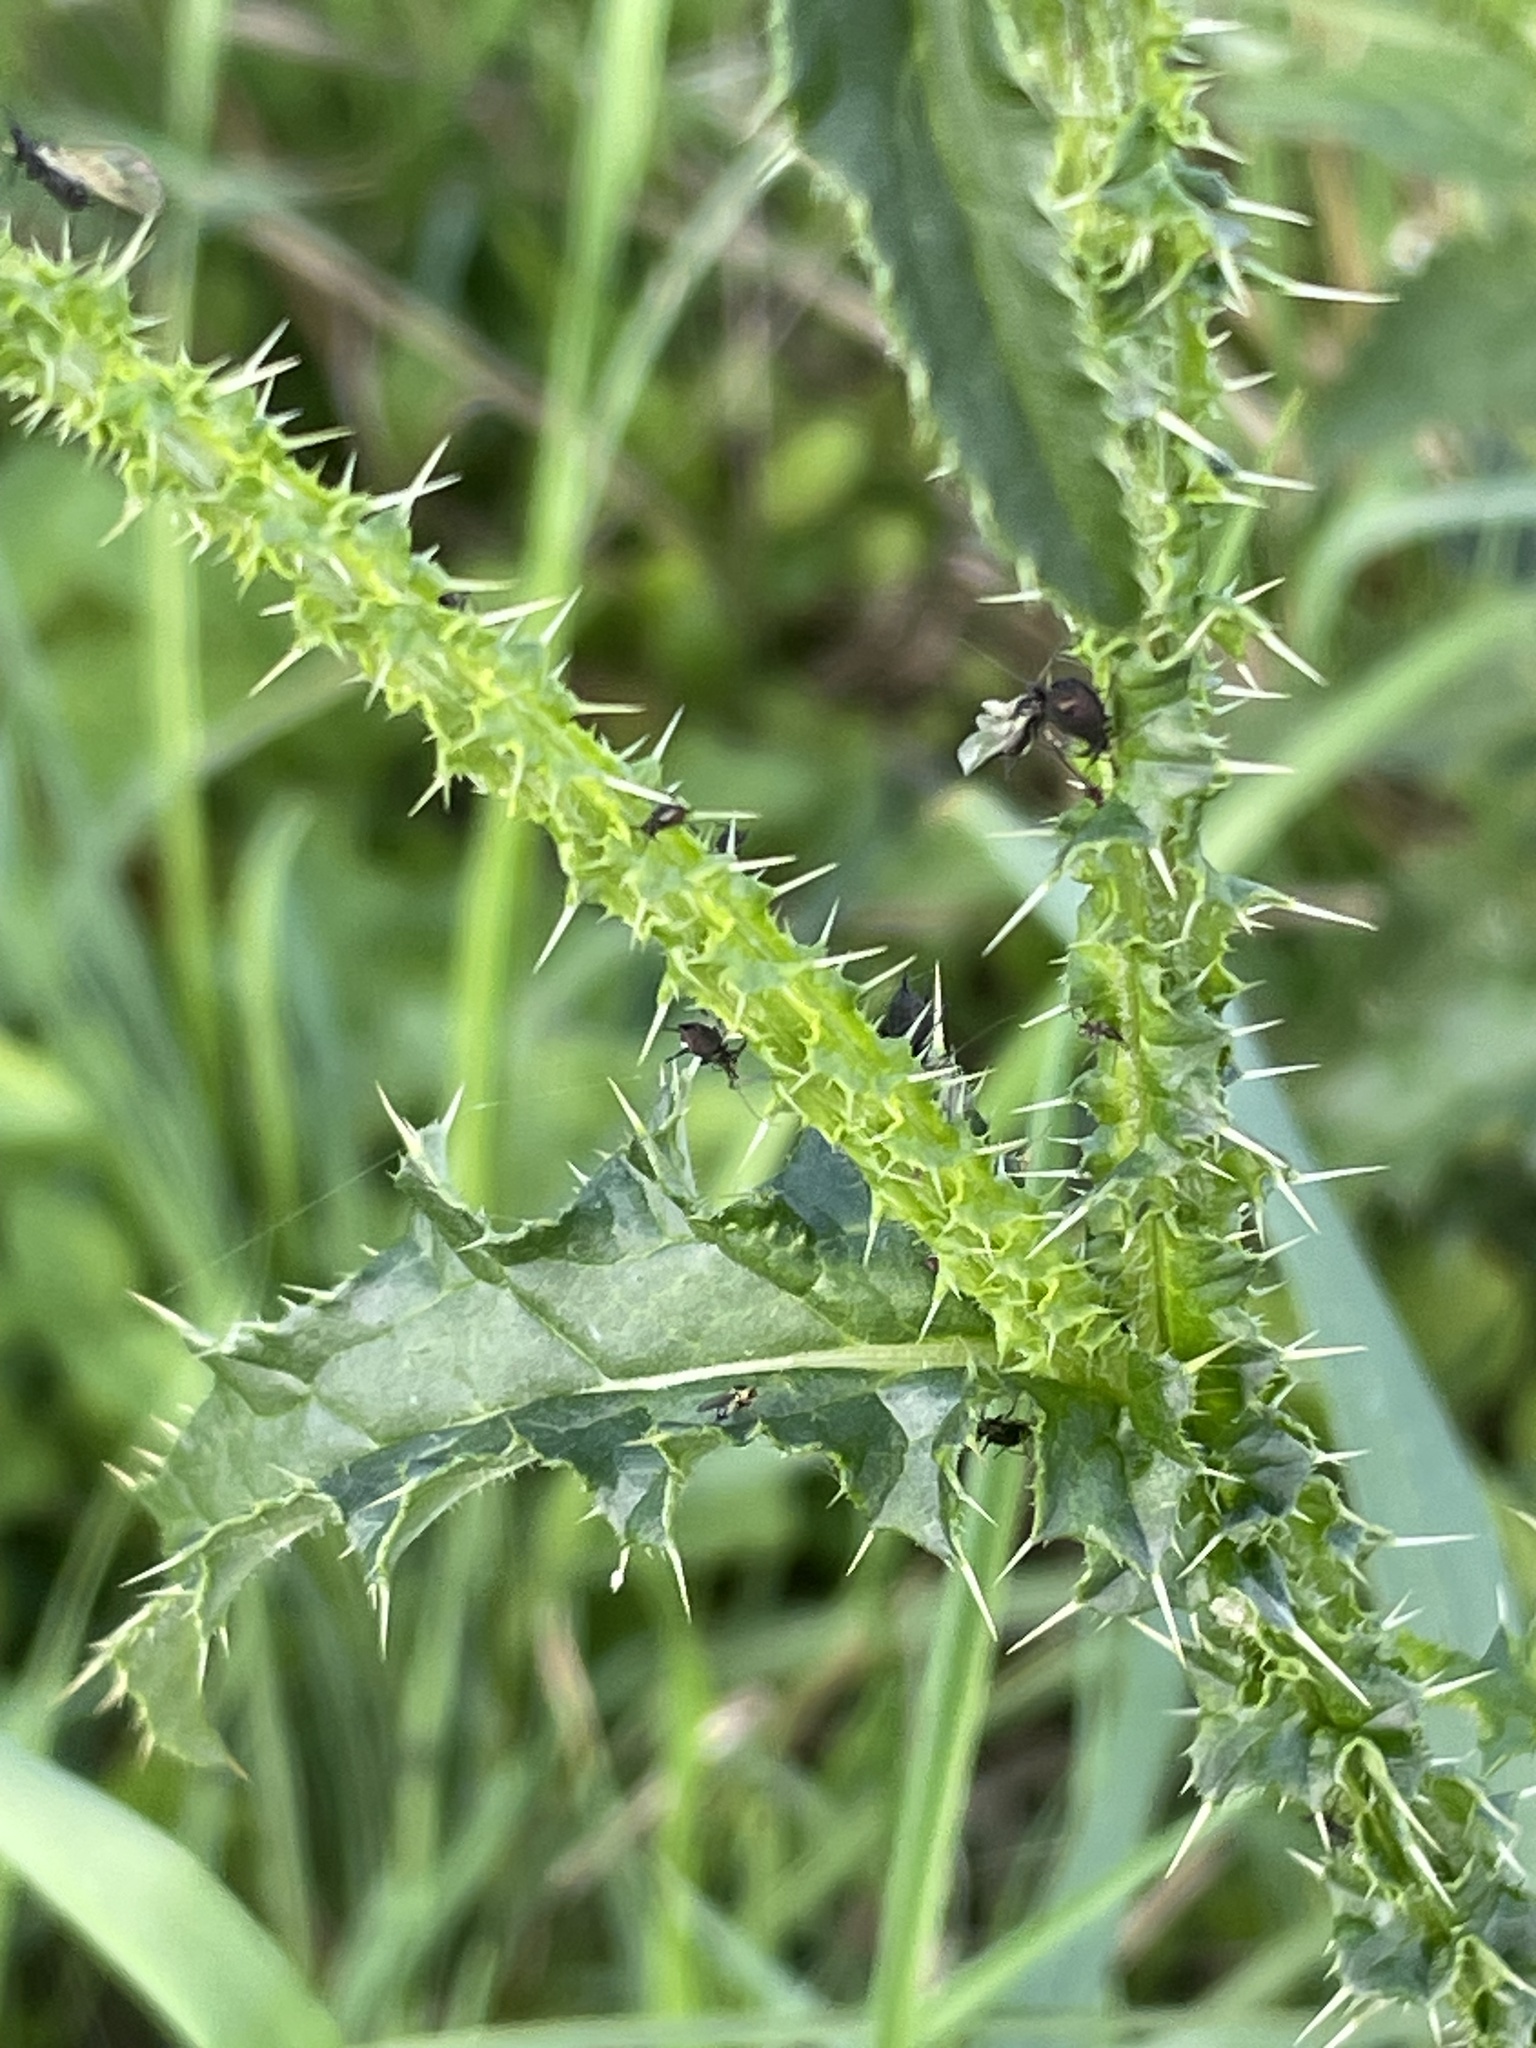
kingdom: Plantae
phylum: Tracheophyta
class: Magnoliopsida
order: Asterales
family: Asteraceae
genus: Carduus
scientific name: Carduus crispus
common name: Welted thistle
